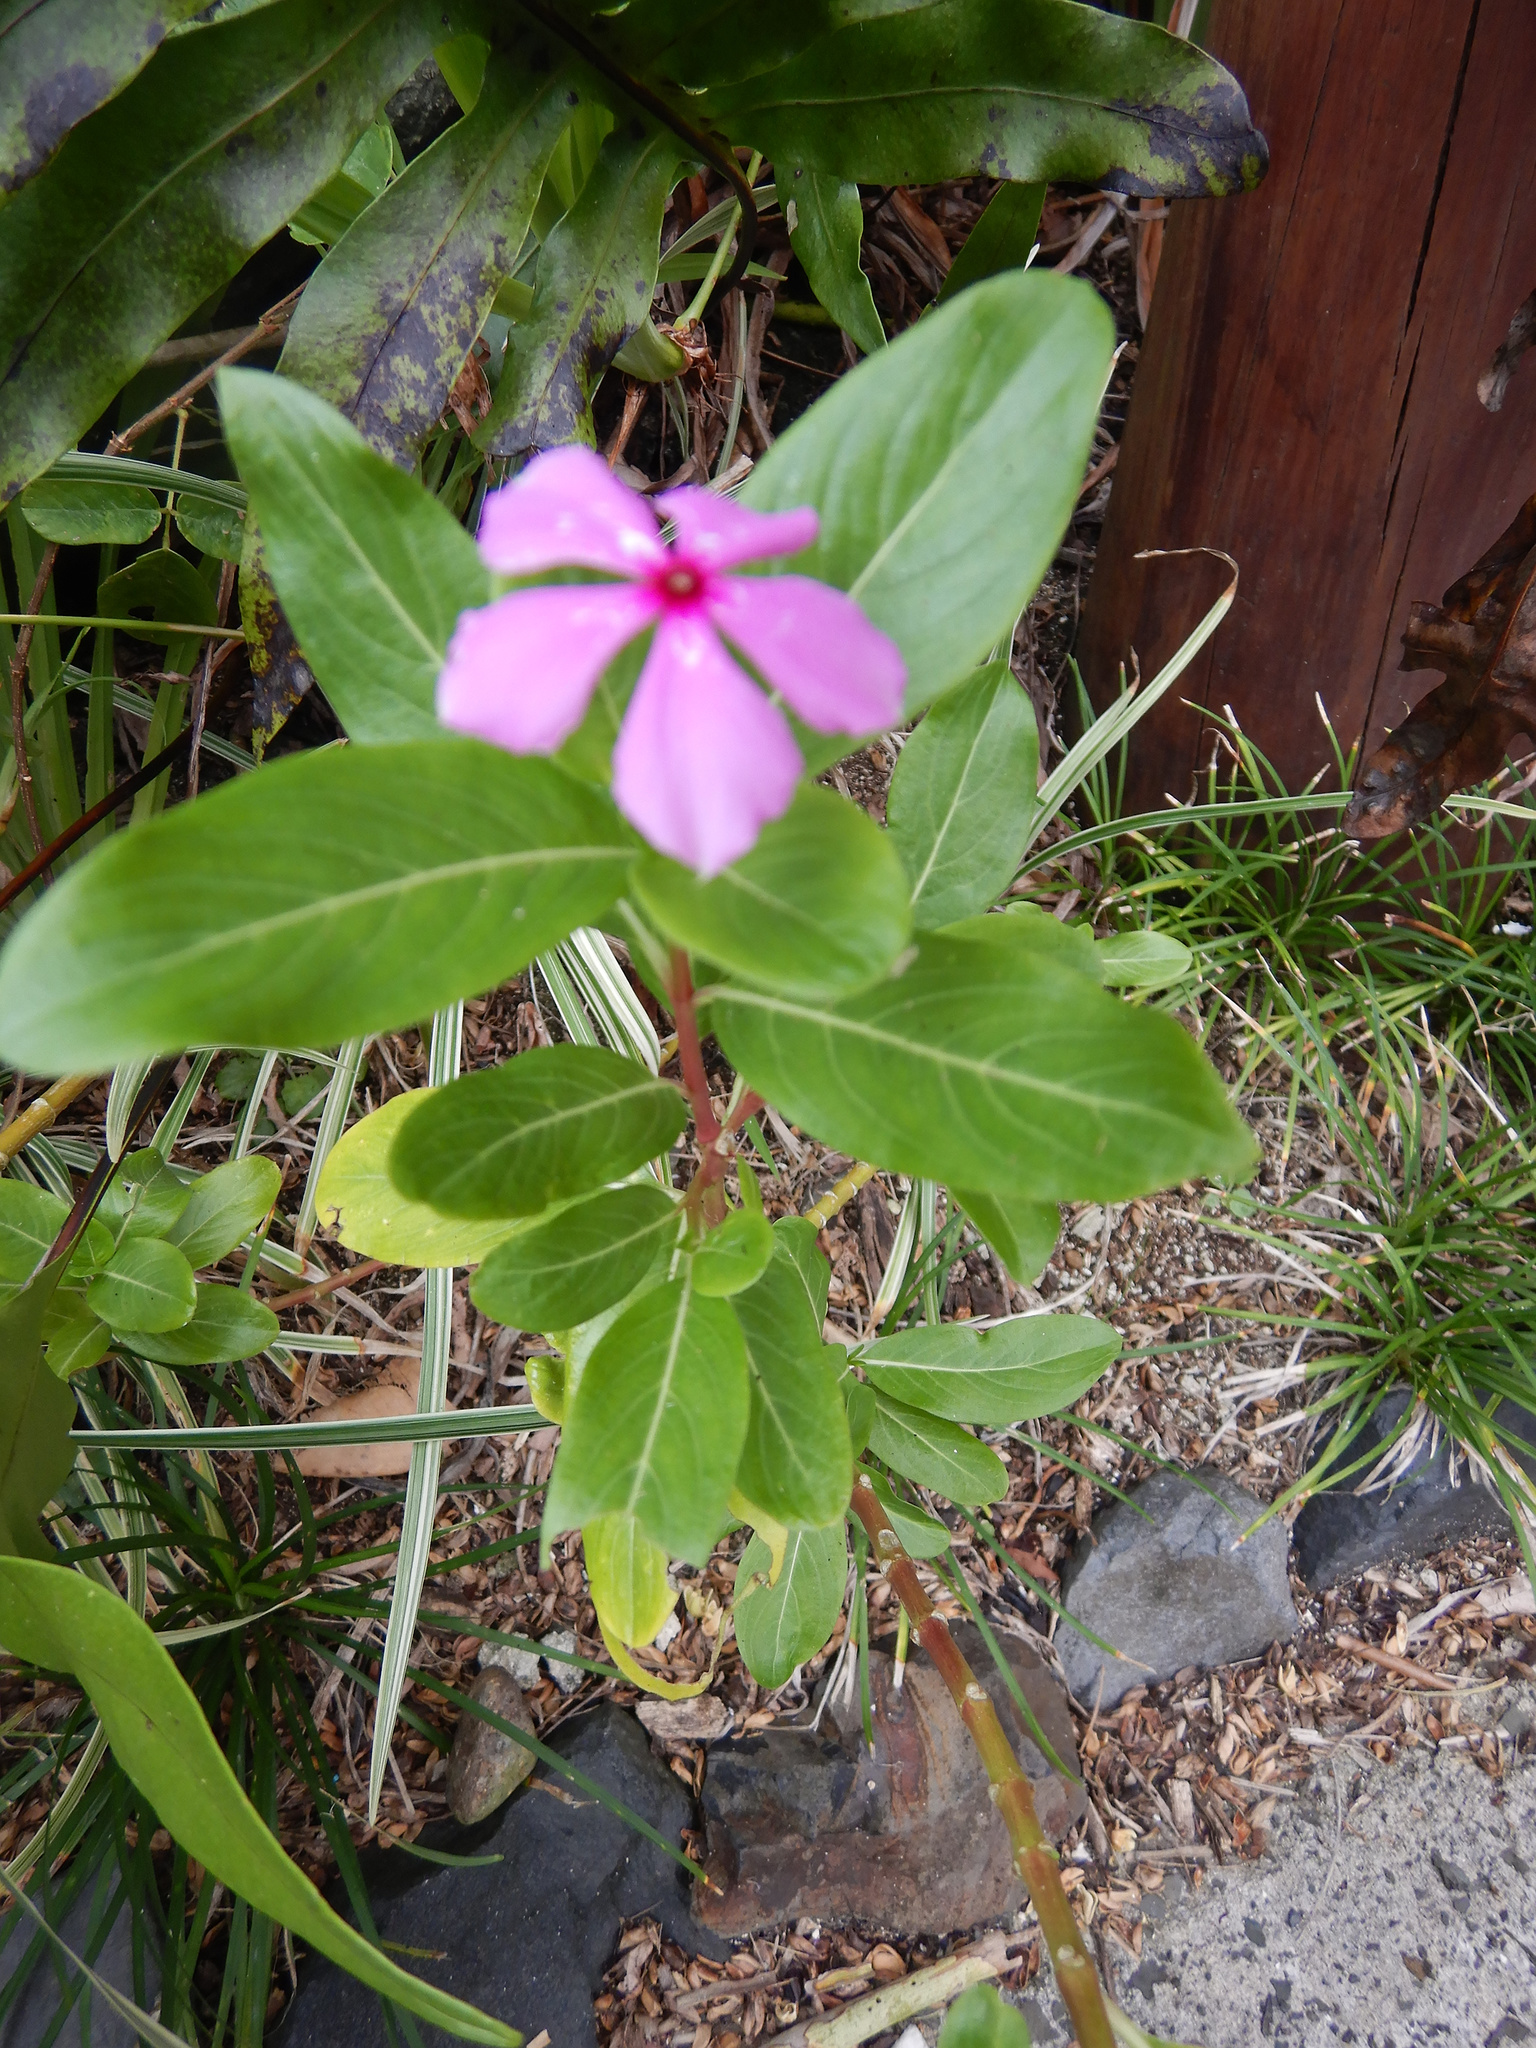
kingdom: Plantae
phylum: Tracheophyta
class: Magnoliopsida
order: Gentianales
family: Apocynaceae
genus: Catharanthus
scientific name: Catharanthus roseus
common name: Madagascar periwinkle
